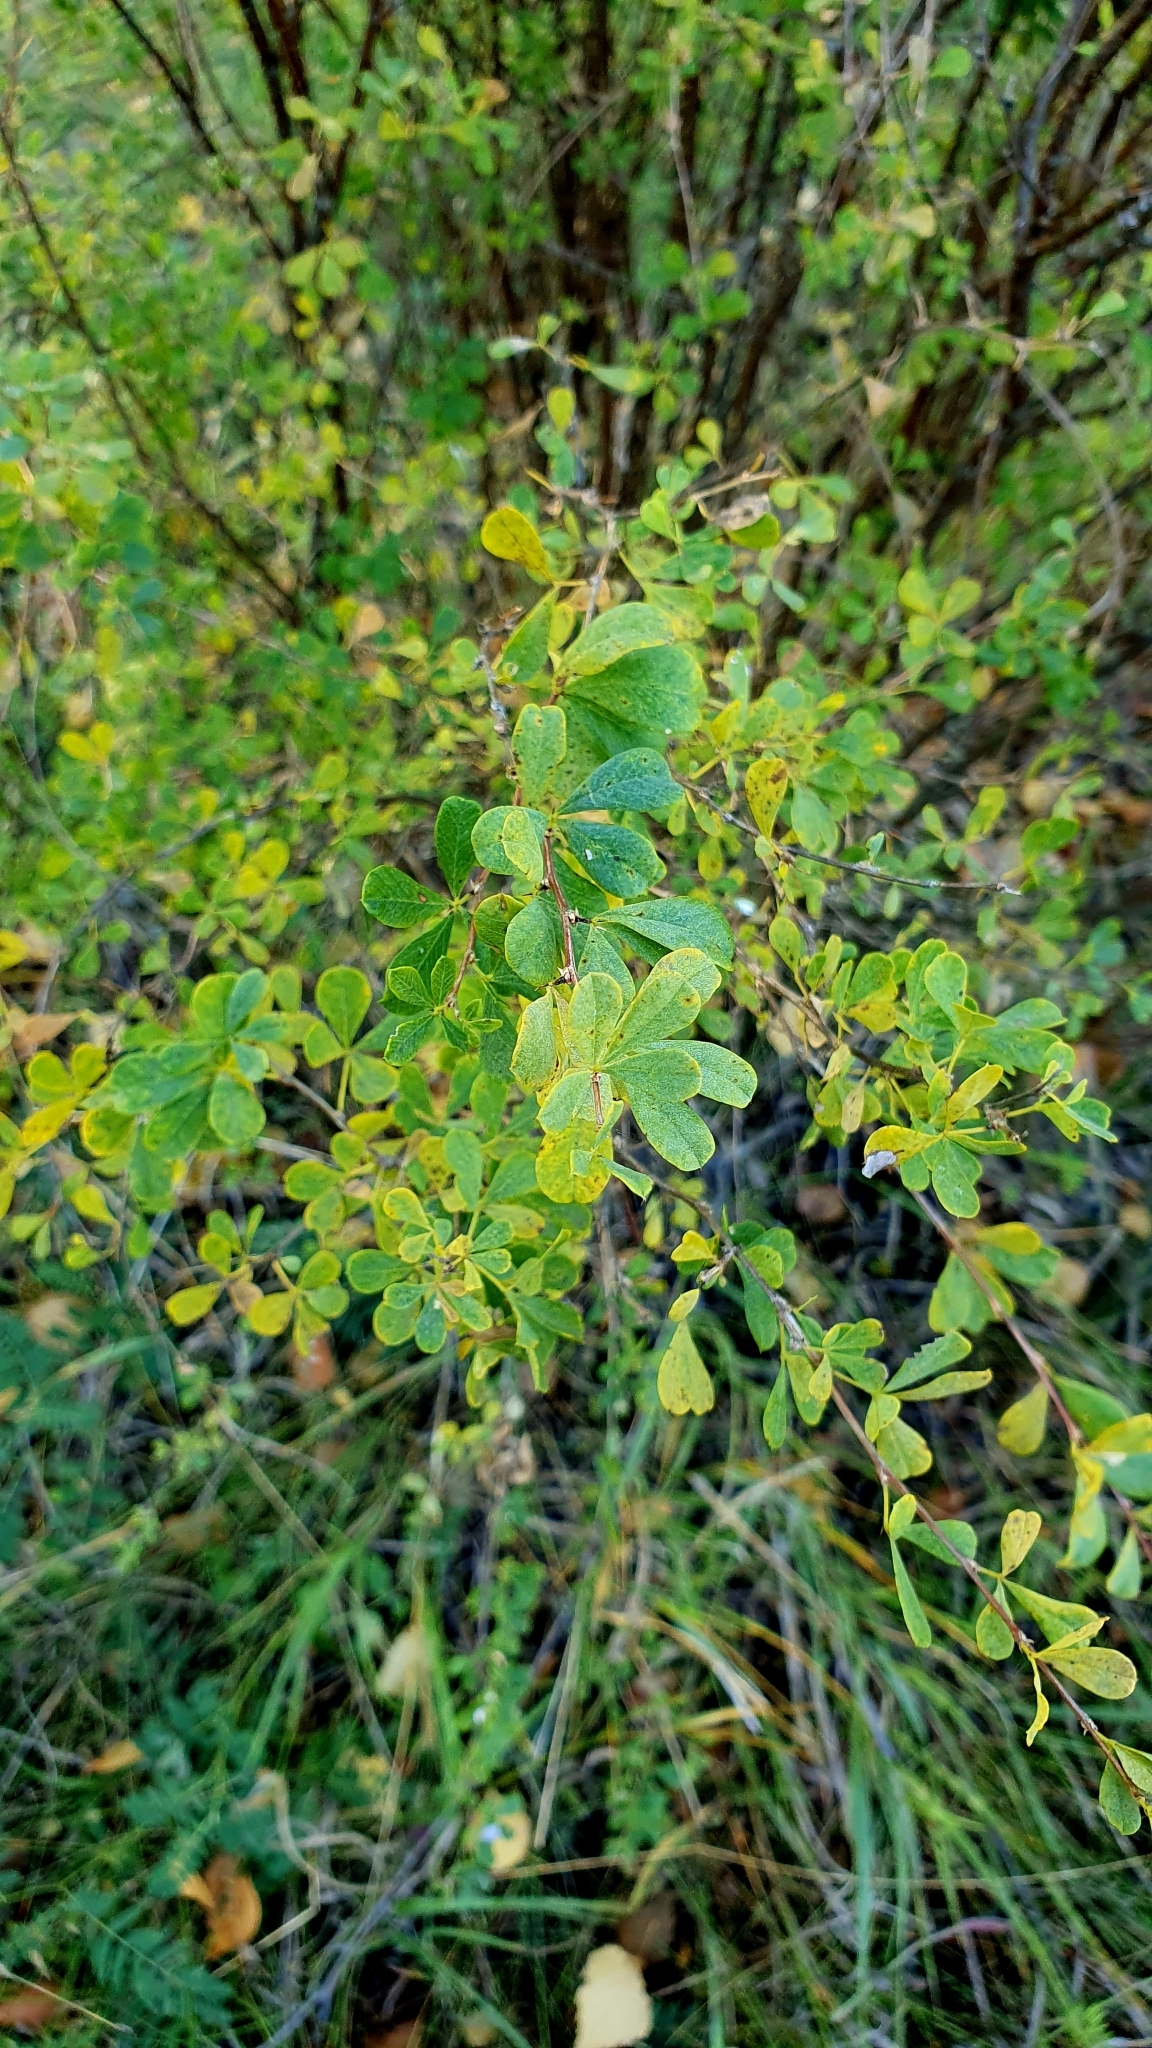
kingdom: Plantae
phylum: Tracheophyta
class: Magnoliopsida
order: Fabales
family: Fabaceae
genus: Caragana
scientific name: Caragana frutex
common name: Russian peashrub
